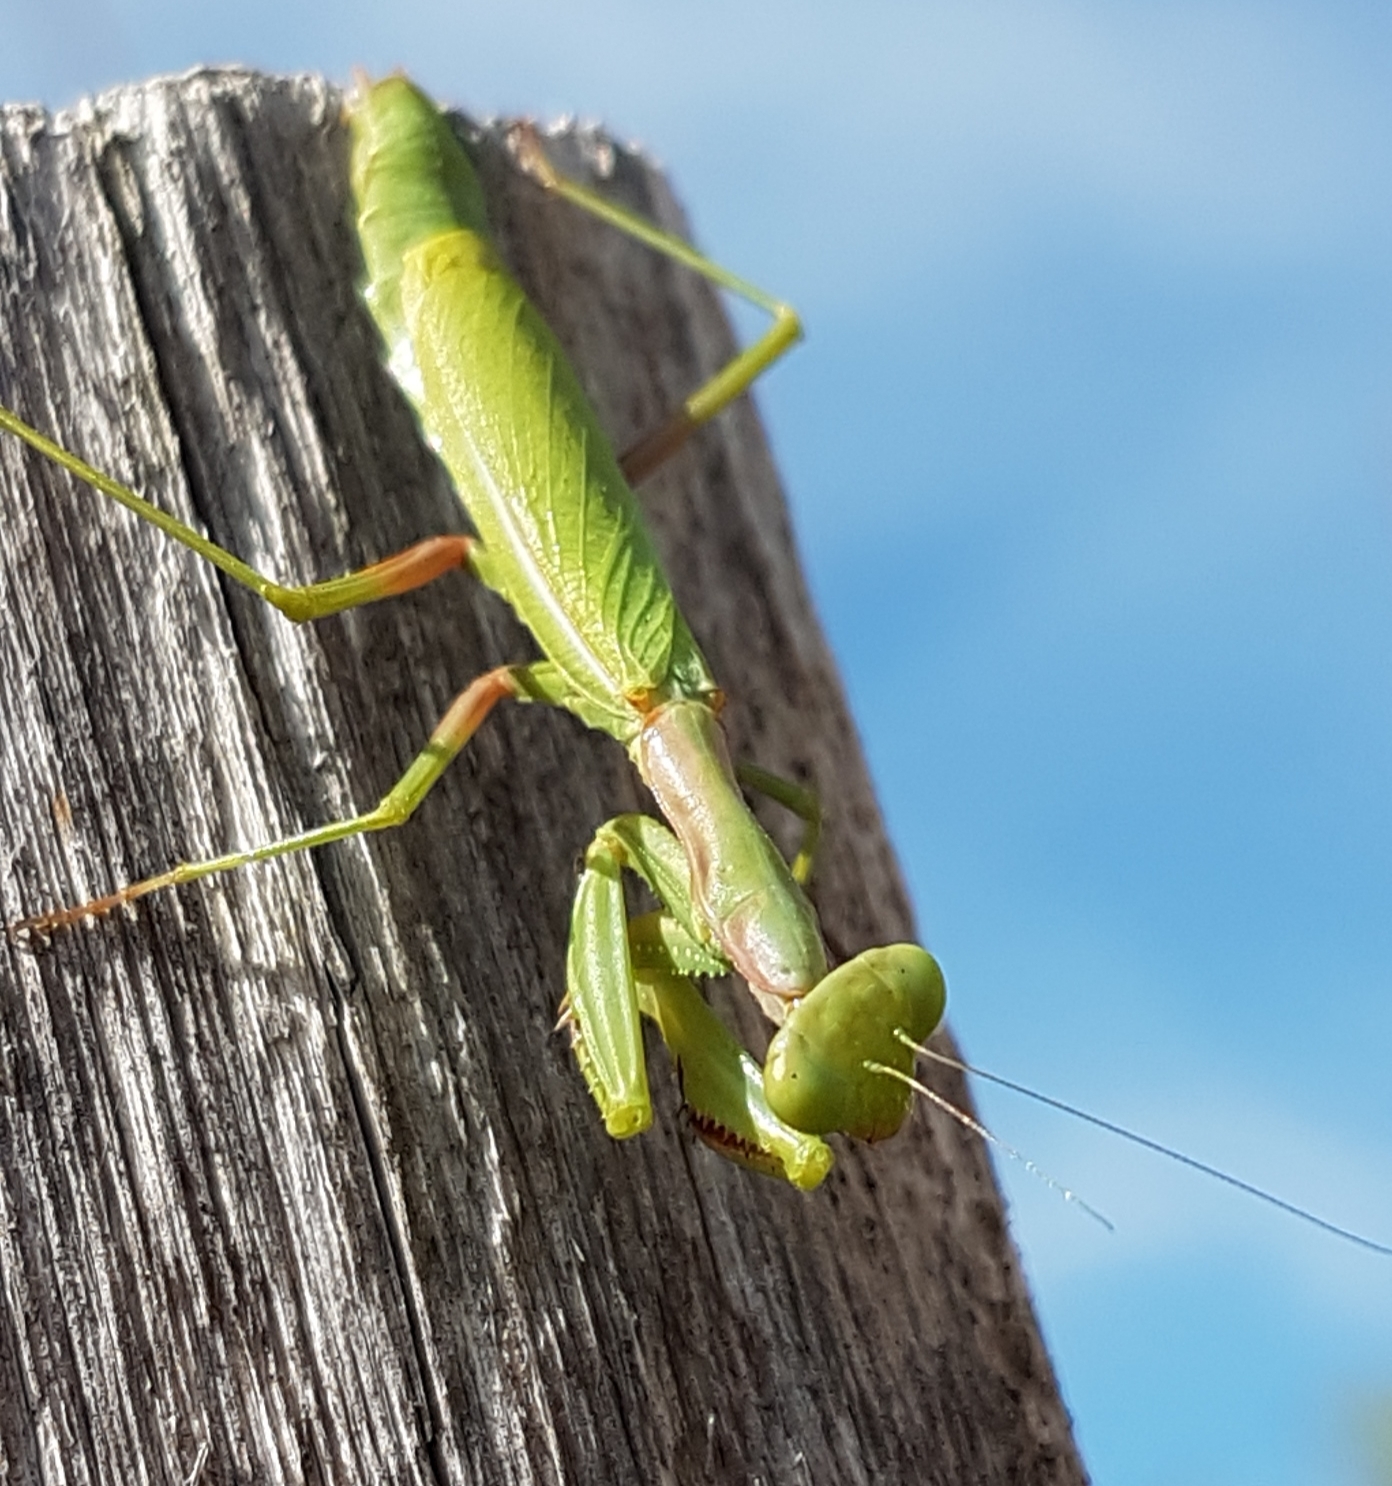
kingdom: Animalia
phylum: Arthropoda
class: Insecta
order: Mantodea
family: Eremiaphilidae
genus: Iris
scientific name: Iris oratoria
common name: Mediterranean mantis
